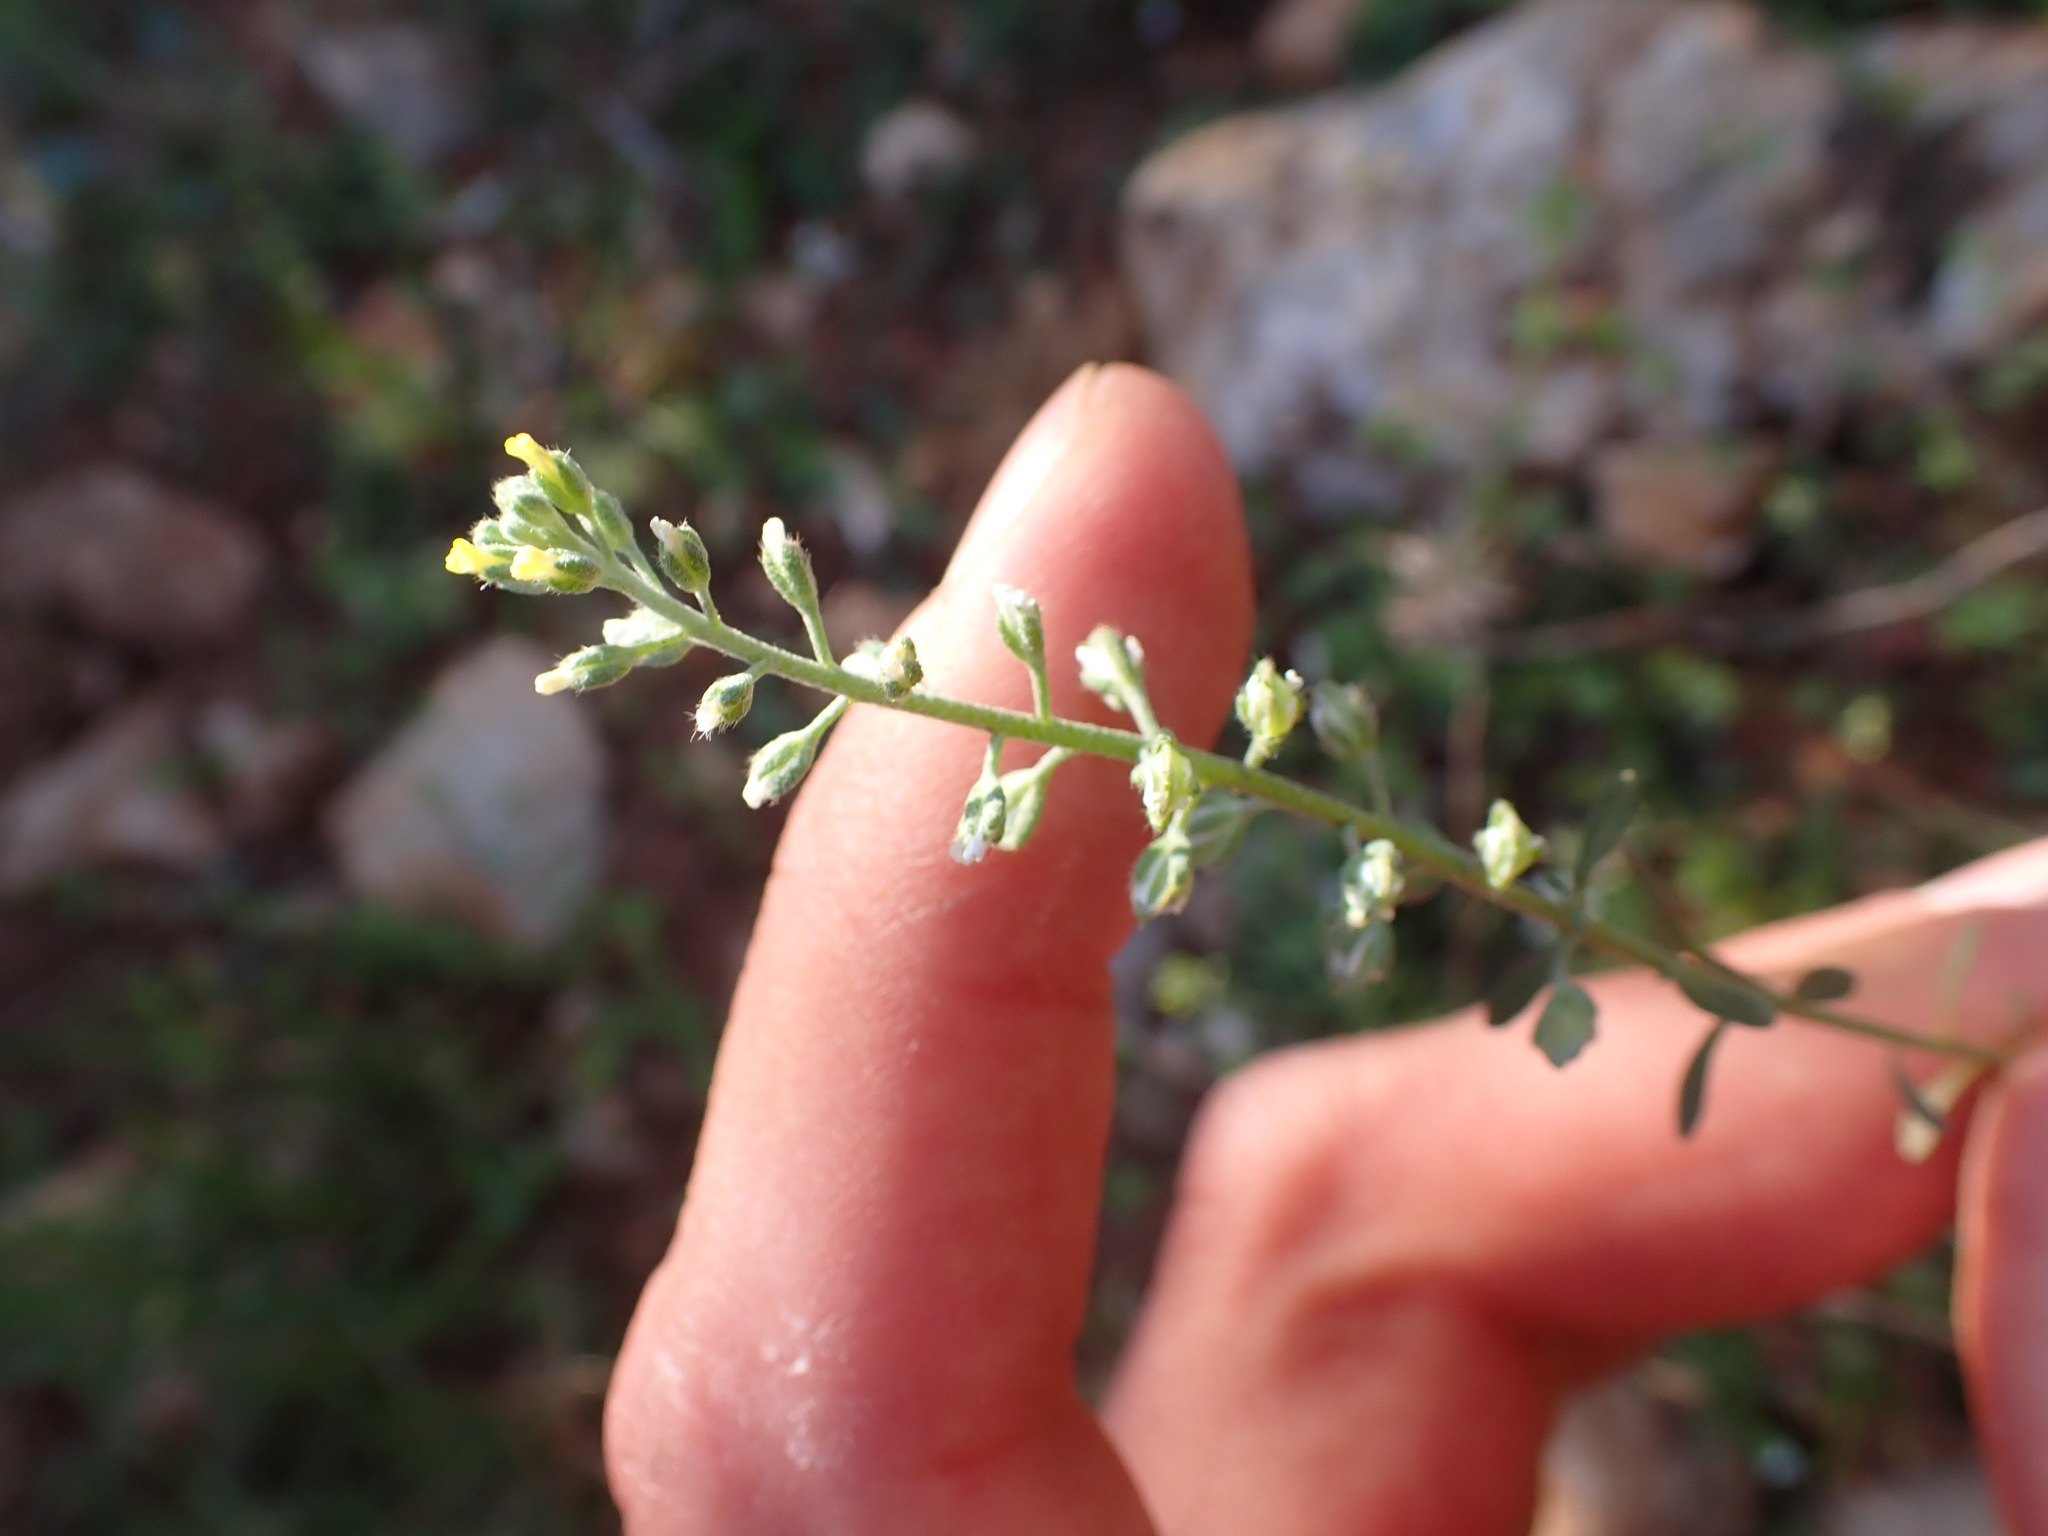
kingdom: Plantae
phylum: Tracheophyta
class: Magnoliopsida
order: Brassicales
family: Brassicaceae
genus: Alyssum
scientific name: Alyssum alyssoides
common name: Small alison
